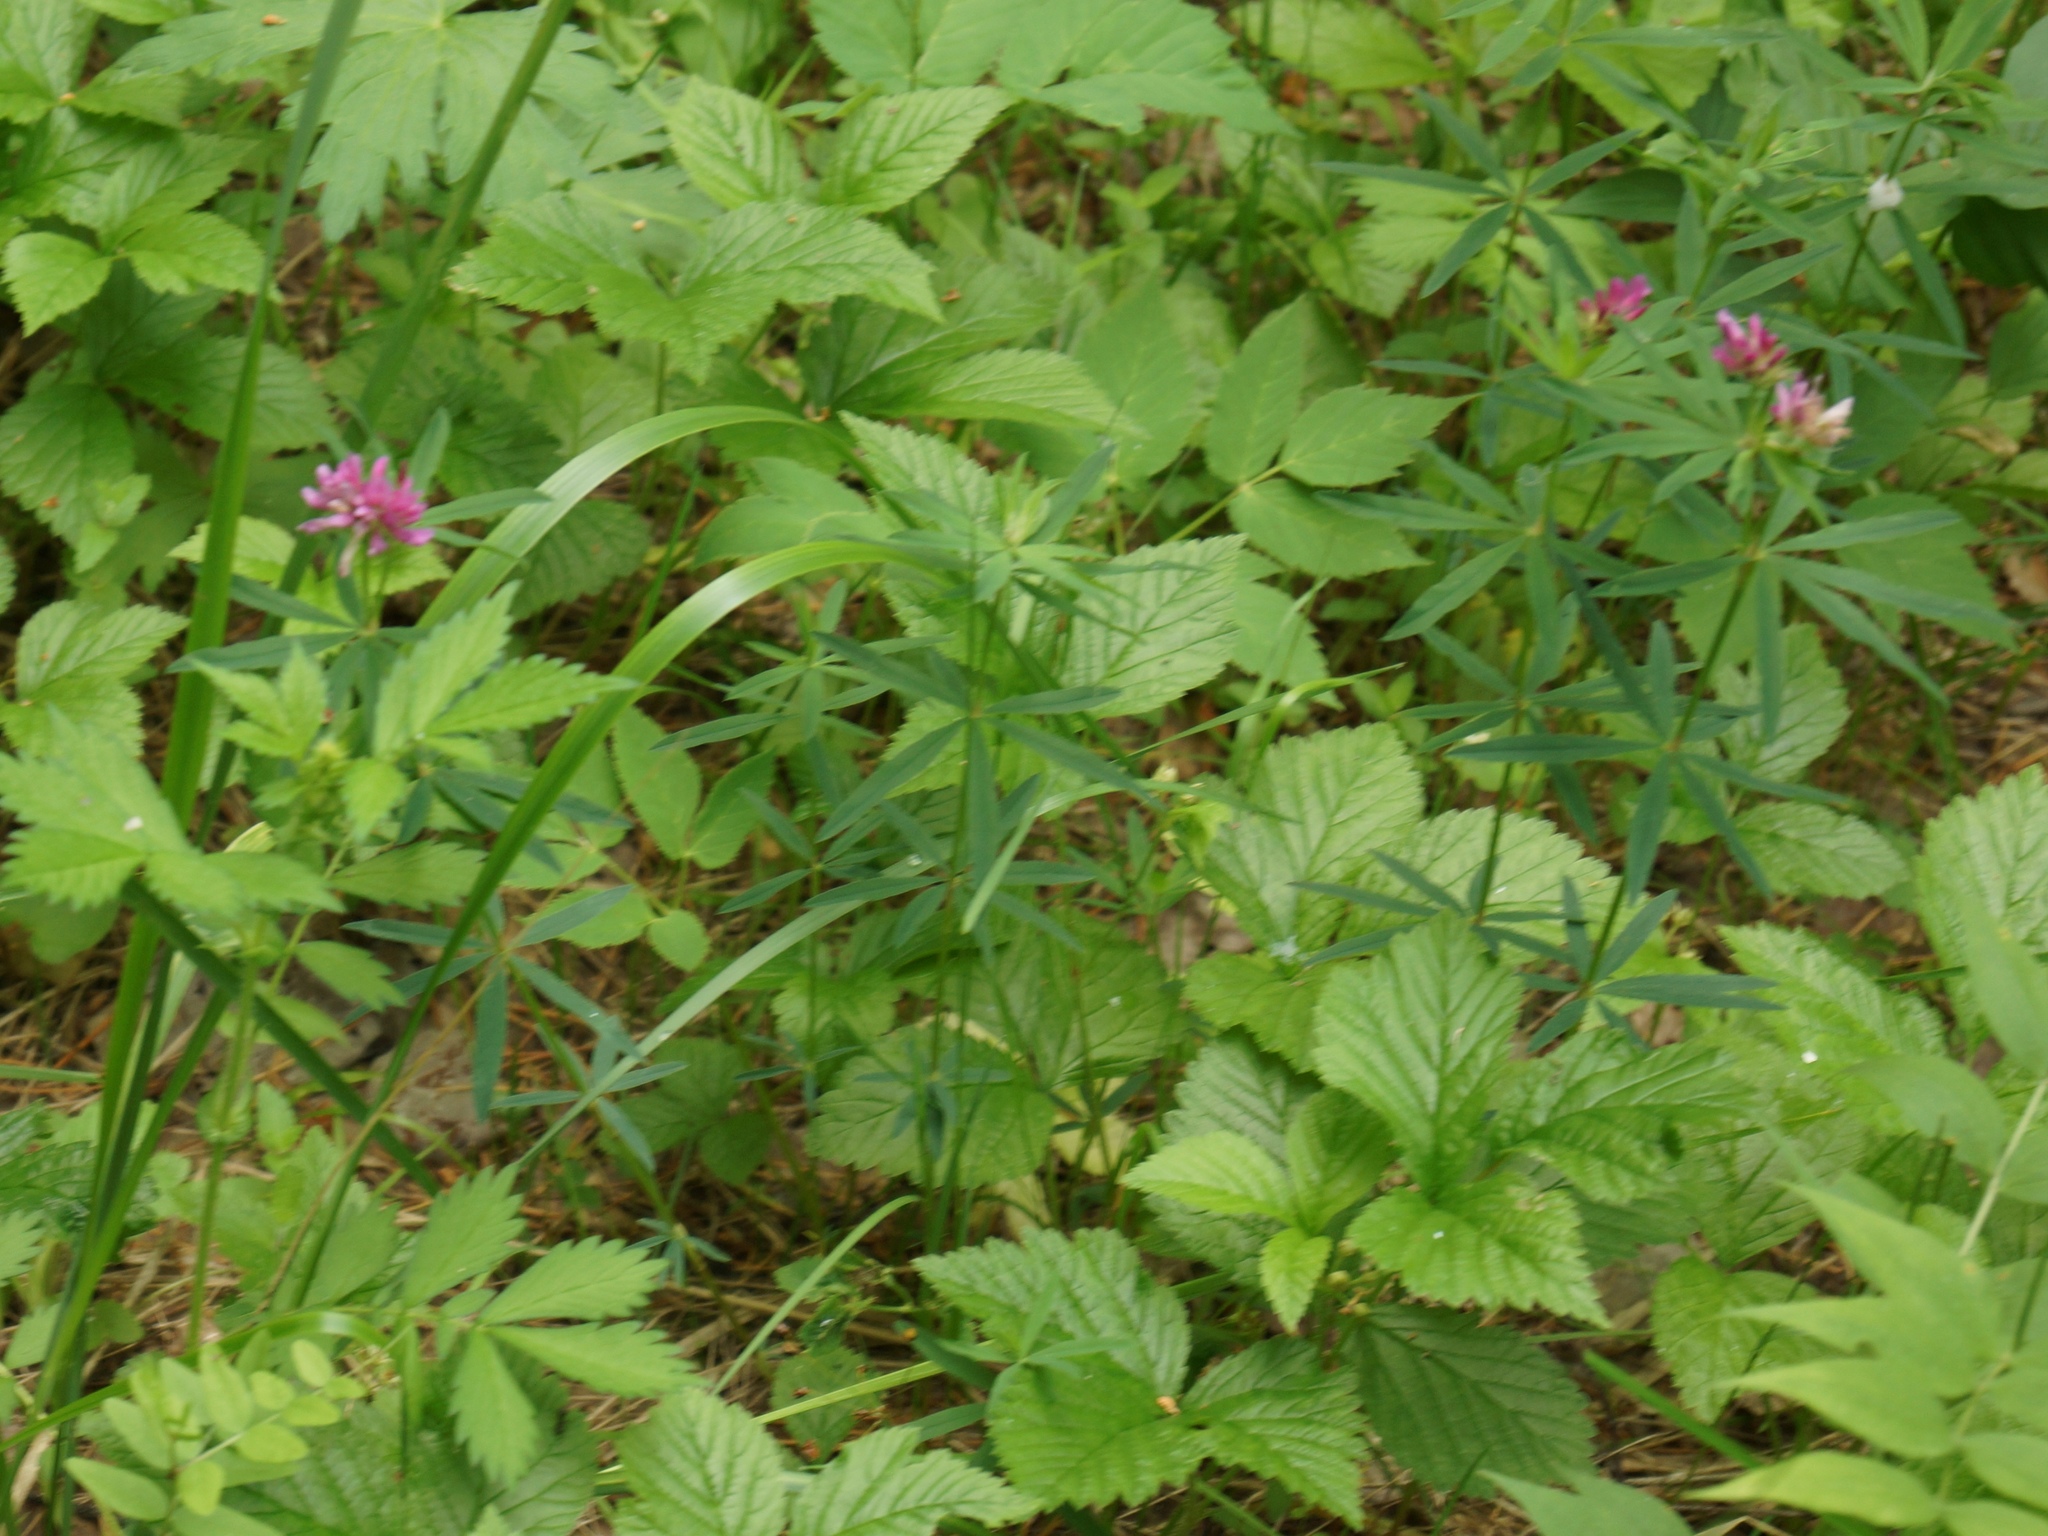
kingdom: Plantae
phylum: Tracheophyta
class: Magnoliopsida
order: Fabales
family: Fabaceae
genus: Trifolium
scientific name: Trifolium lupinaster
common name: Lupine clover
